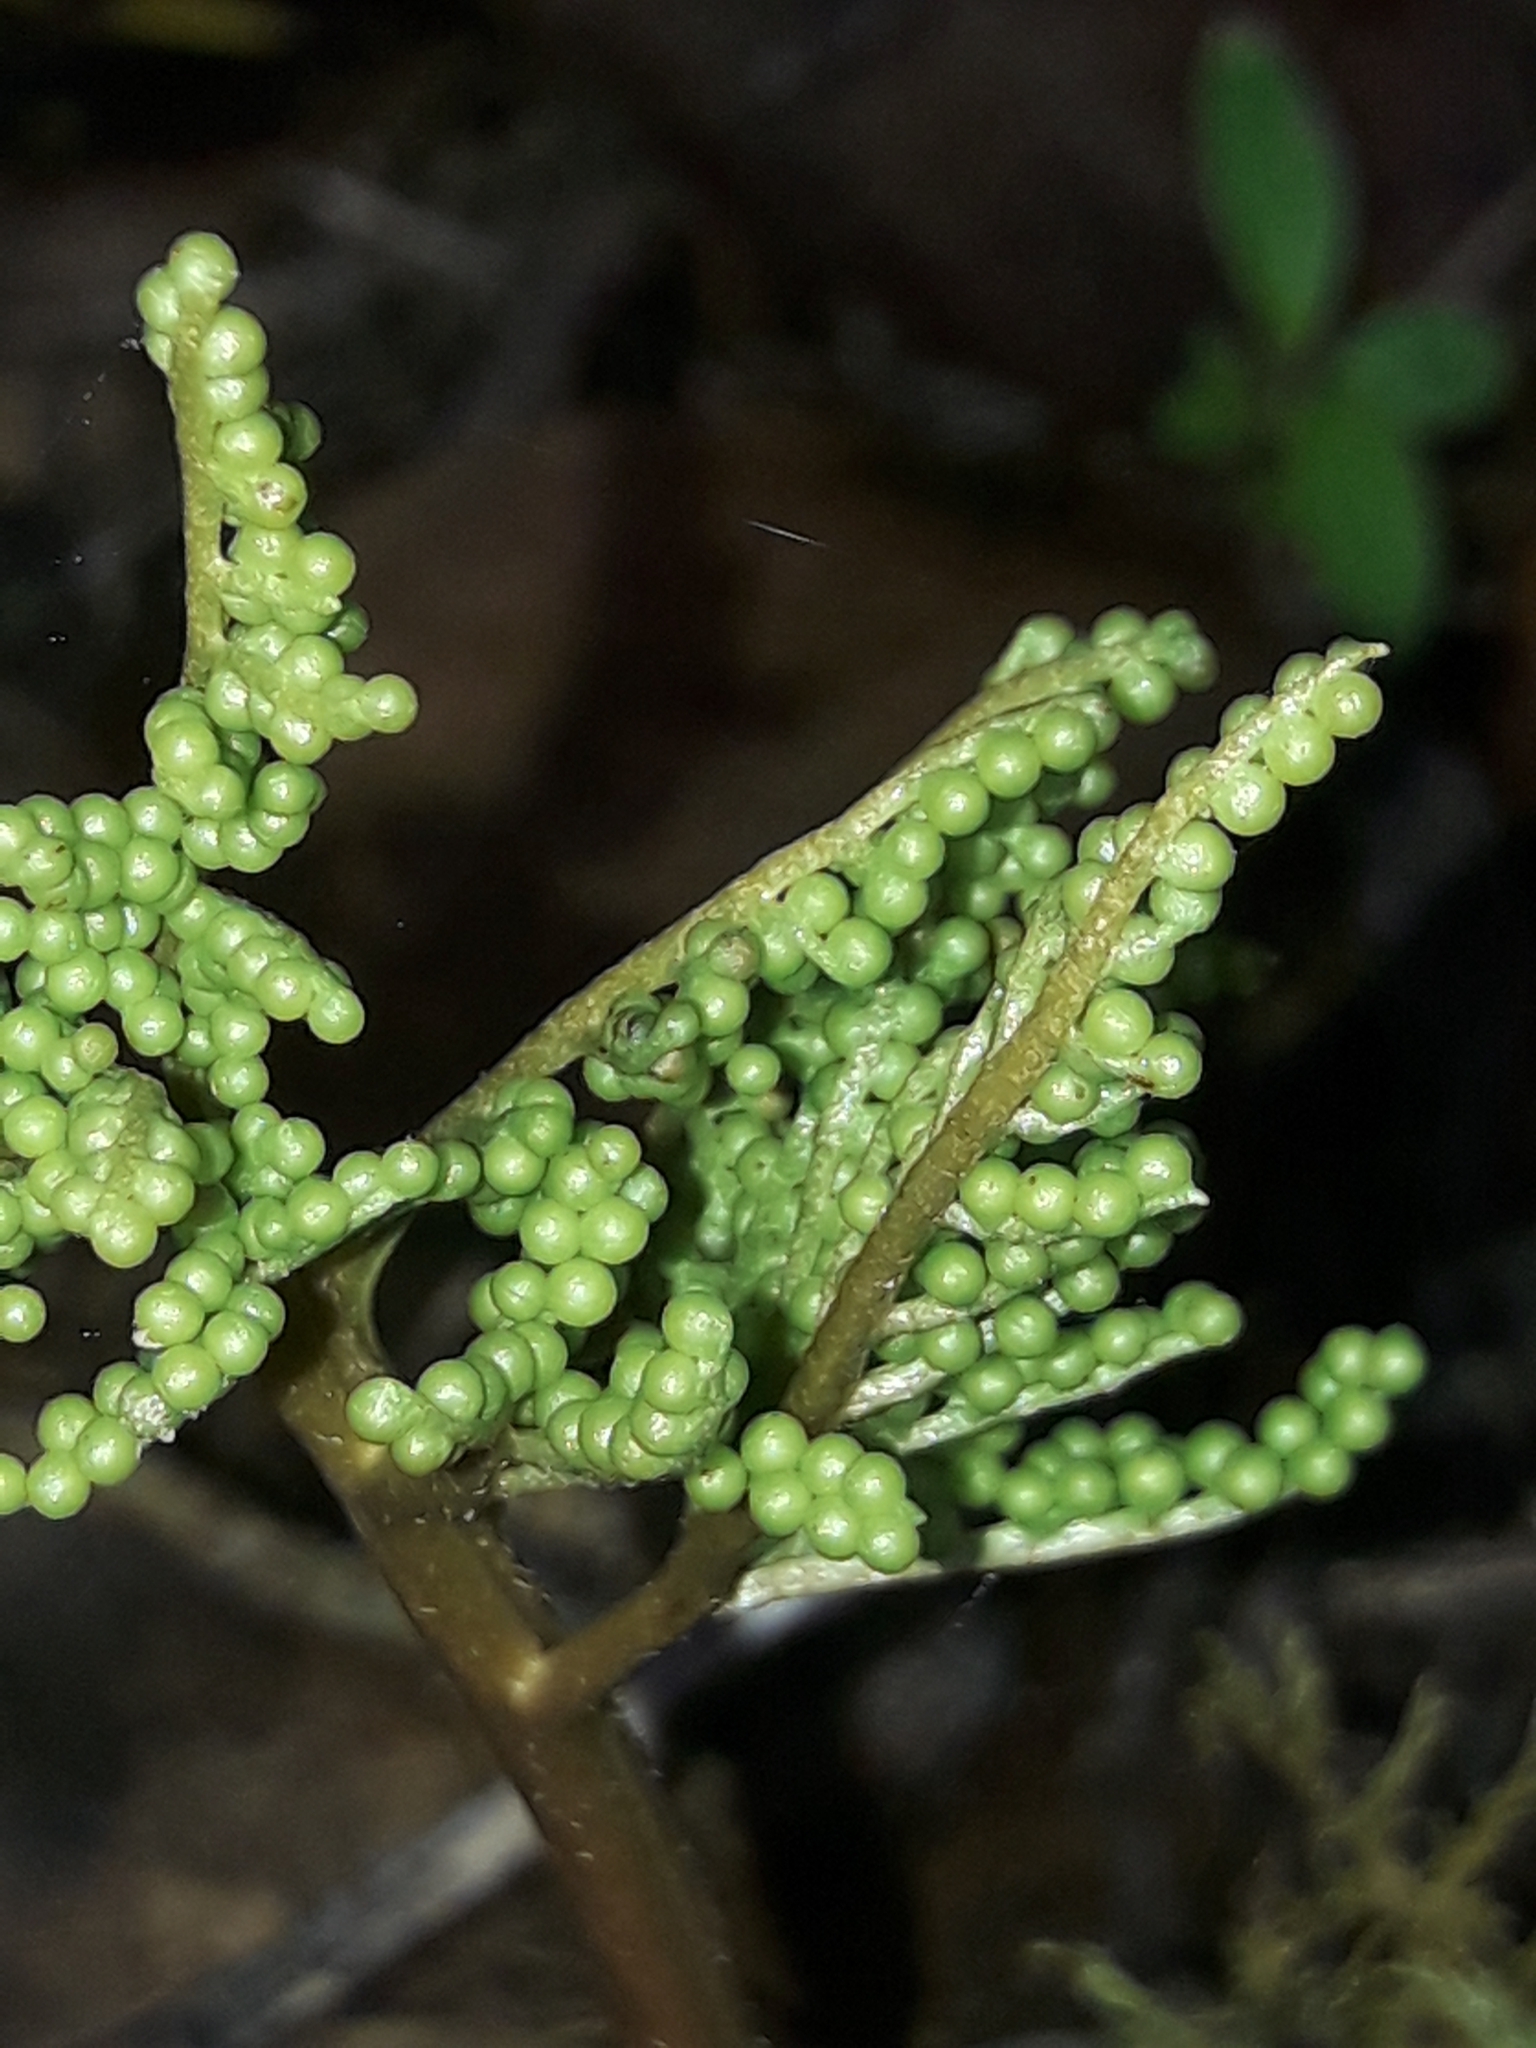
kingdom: Plantae
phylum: Tracheophyta
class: Polypodiopsida
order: Ophioglossales
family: Ophioglossaceae
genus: Sceptridium
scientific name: Sceptridium biforme
